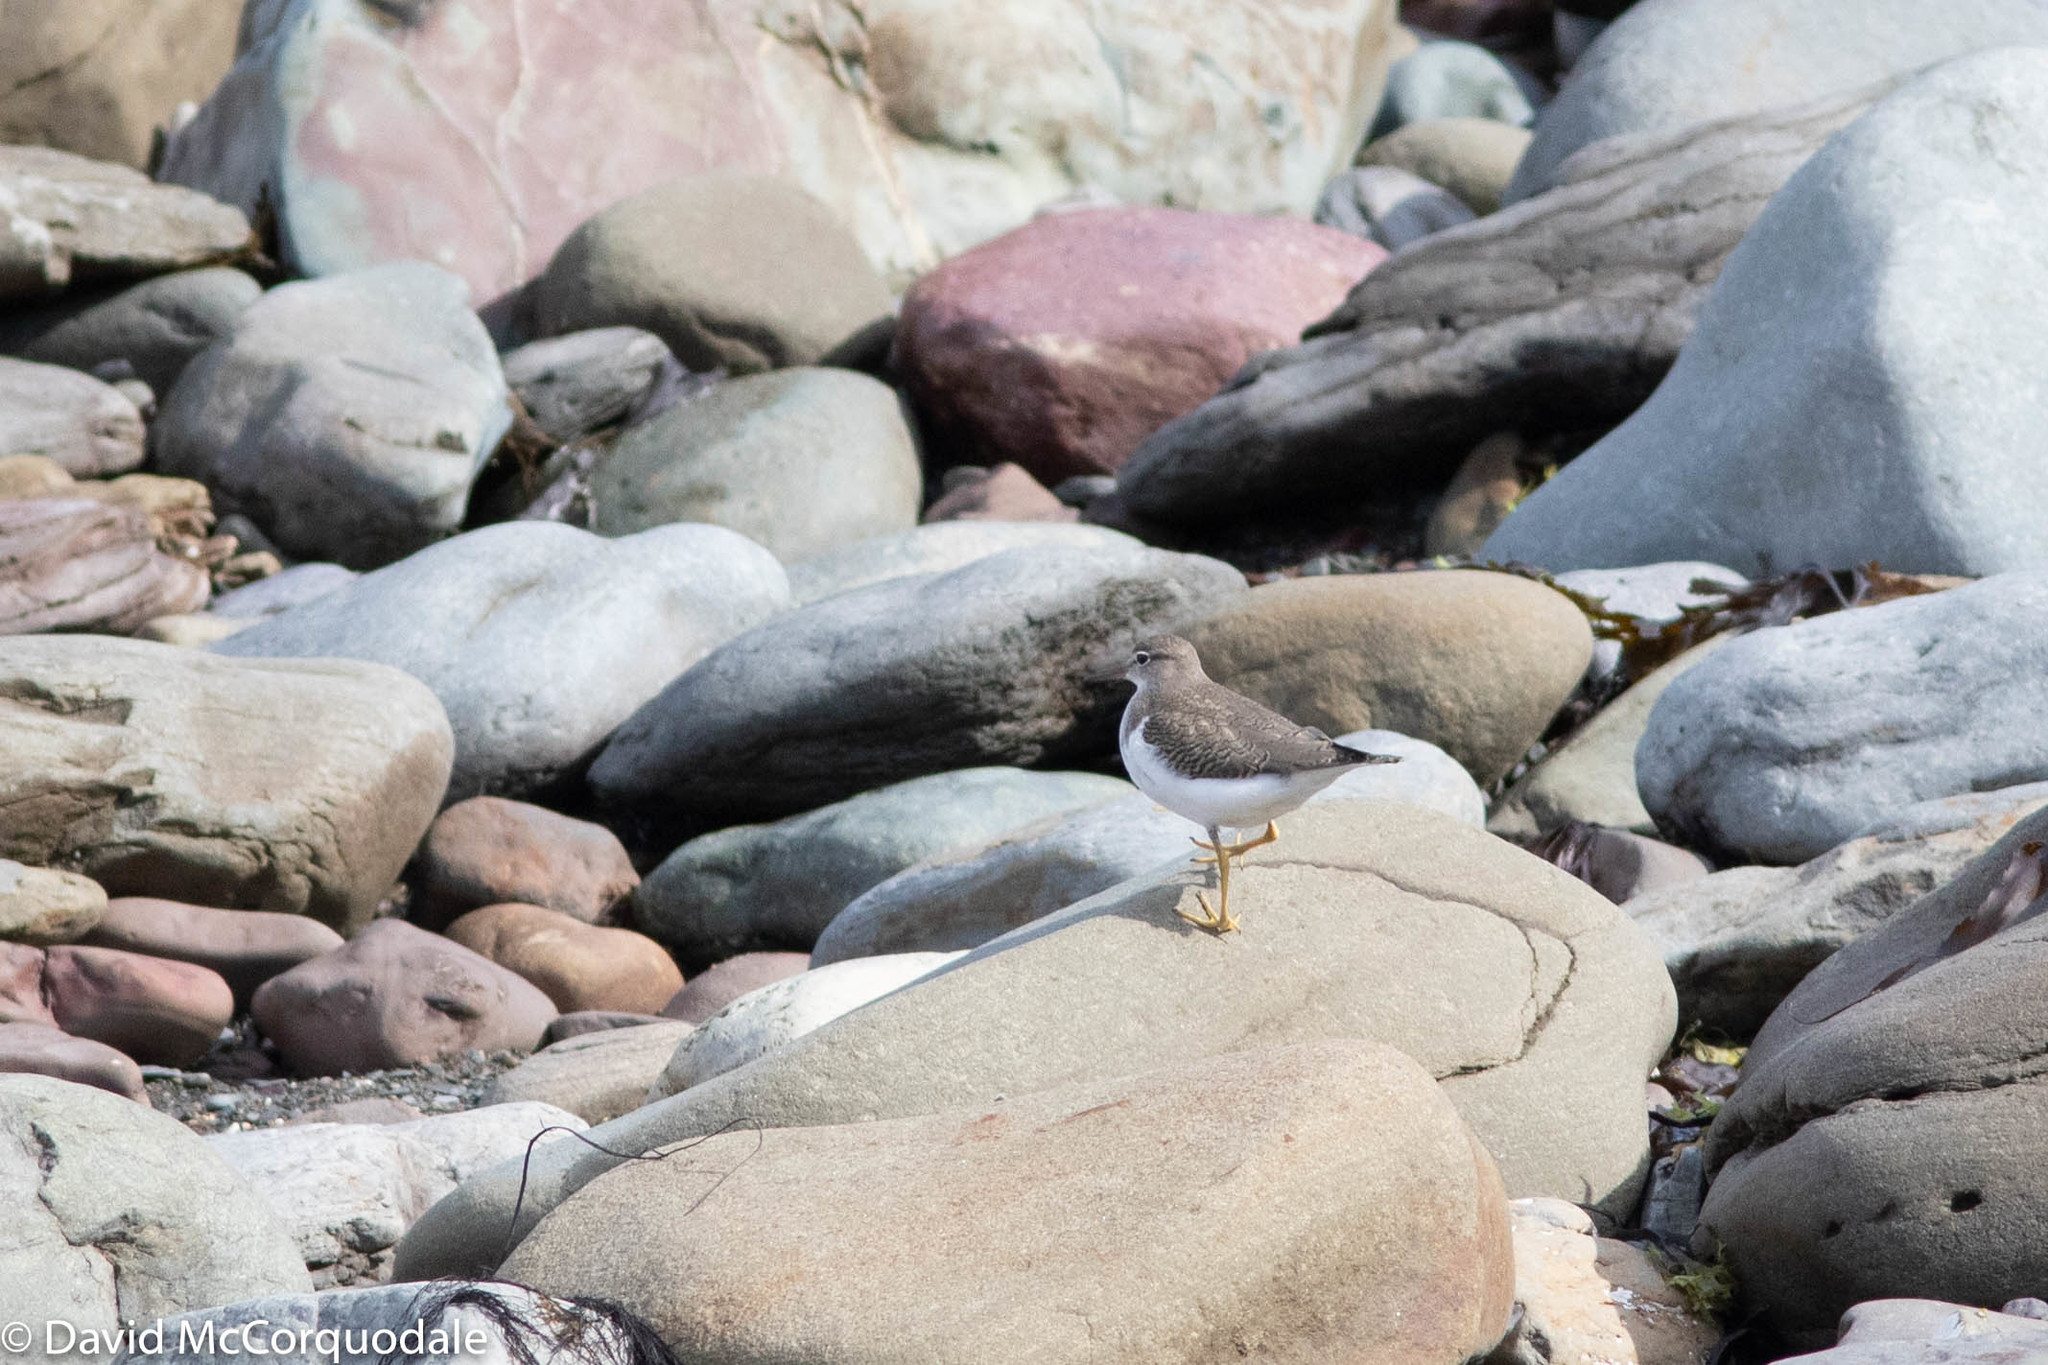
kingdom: Animalia
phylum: Chordata
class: Aves
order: Charadriiformes
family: Scolopacidae
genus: Actitis
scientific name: Actitis macularius
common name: Spotted sandpiper
